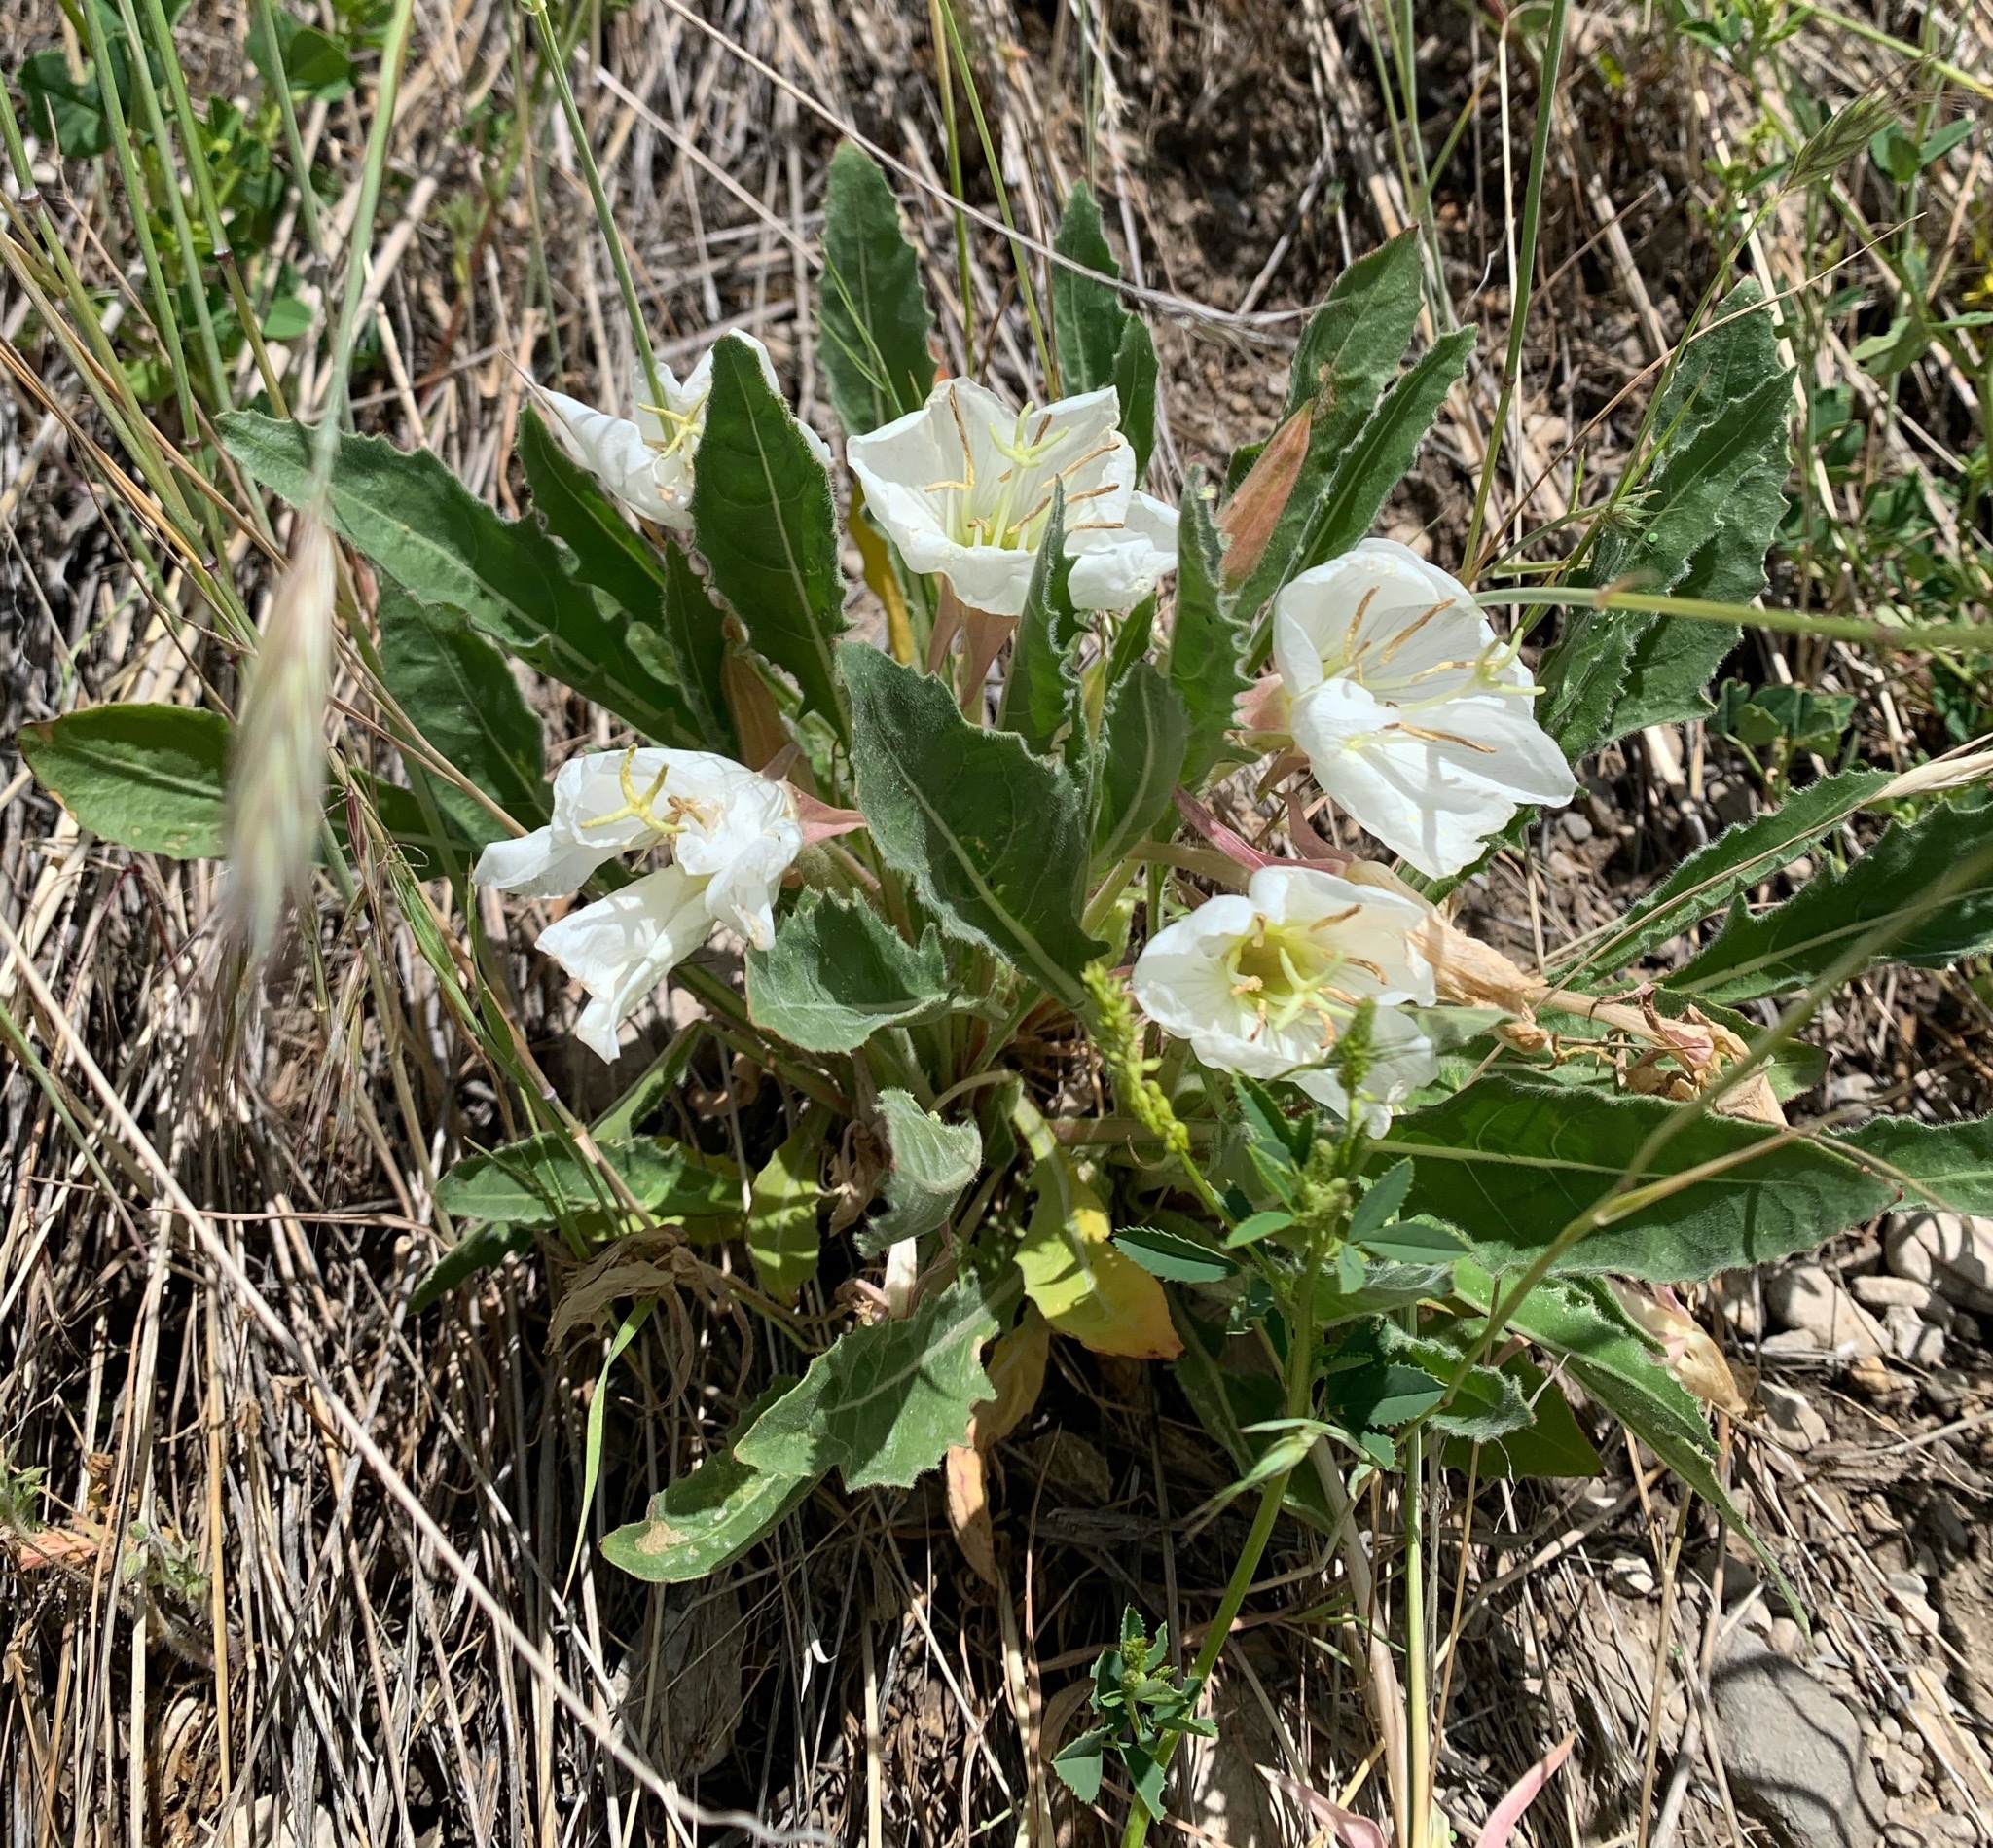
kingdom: Plantae
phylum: Tracheophyta
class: Magnoliopsida
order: Myrtales
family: Onagraceae
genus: Oenothera
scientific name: Oenothera cespitosa
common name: Tufted evening-primrose
